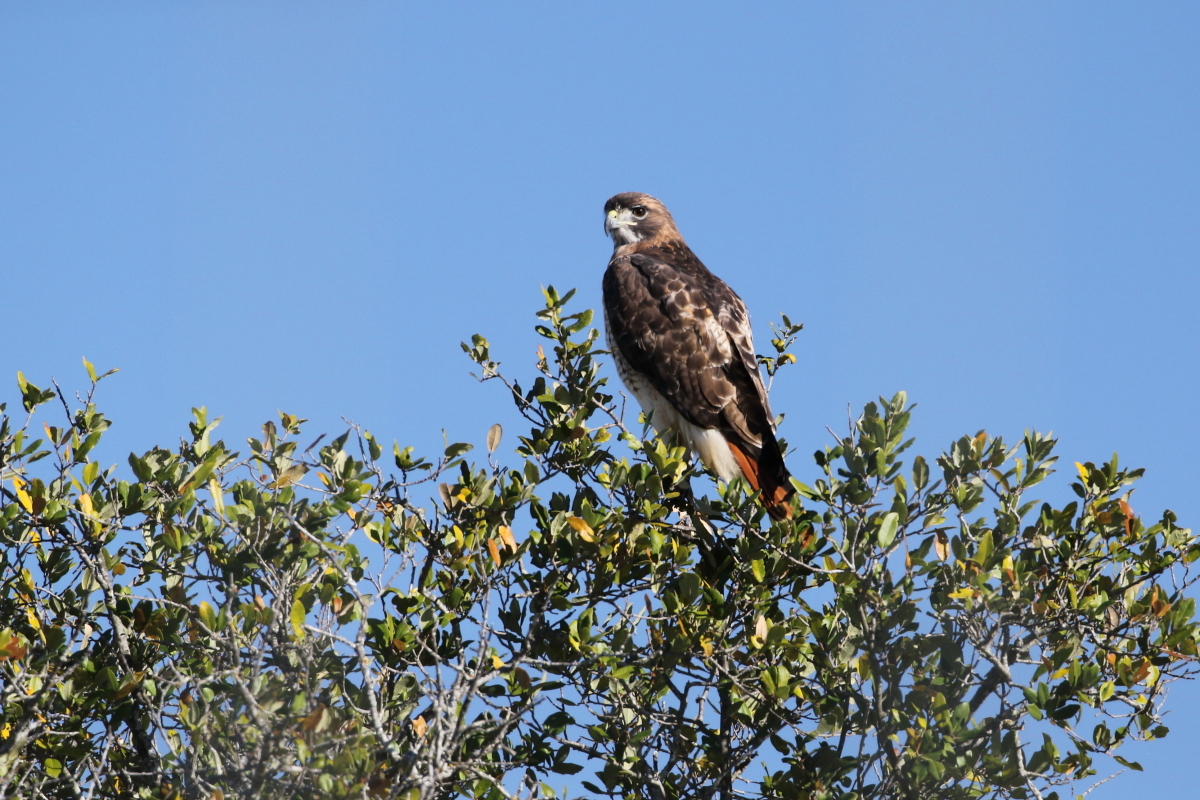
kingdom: Animalia
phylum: Chordata
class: Aves
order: Accipitriformes
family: Accipitridae
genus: Buteo
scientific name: Buteo jamaicensis
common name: Red-tailed hawk
